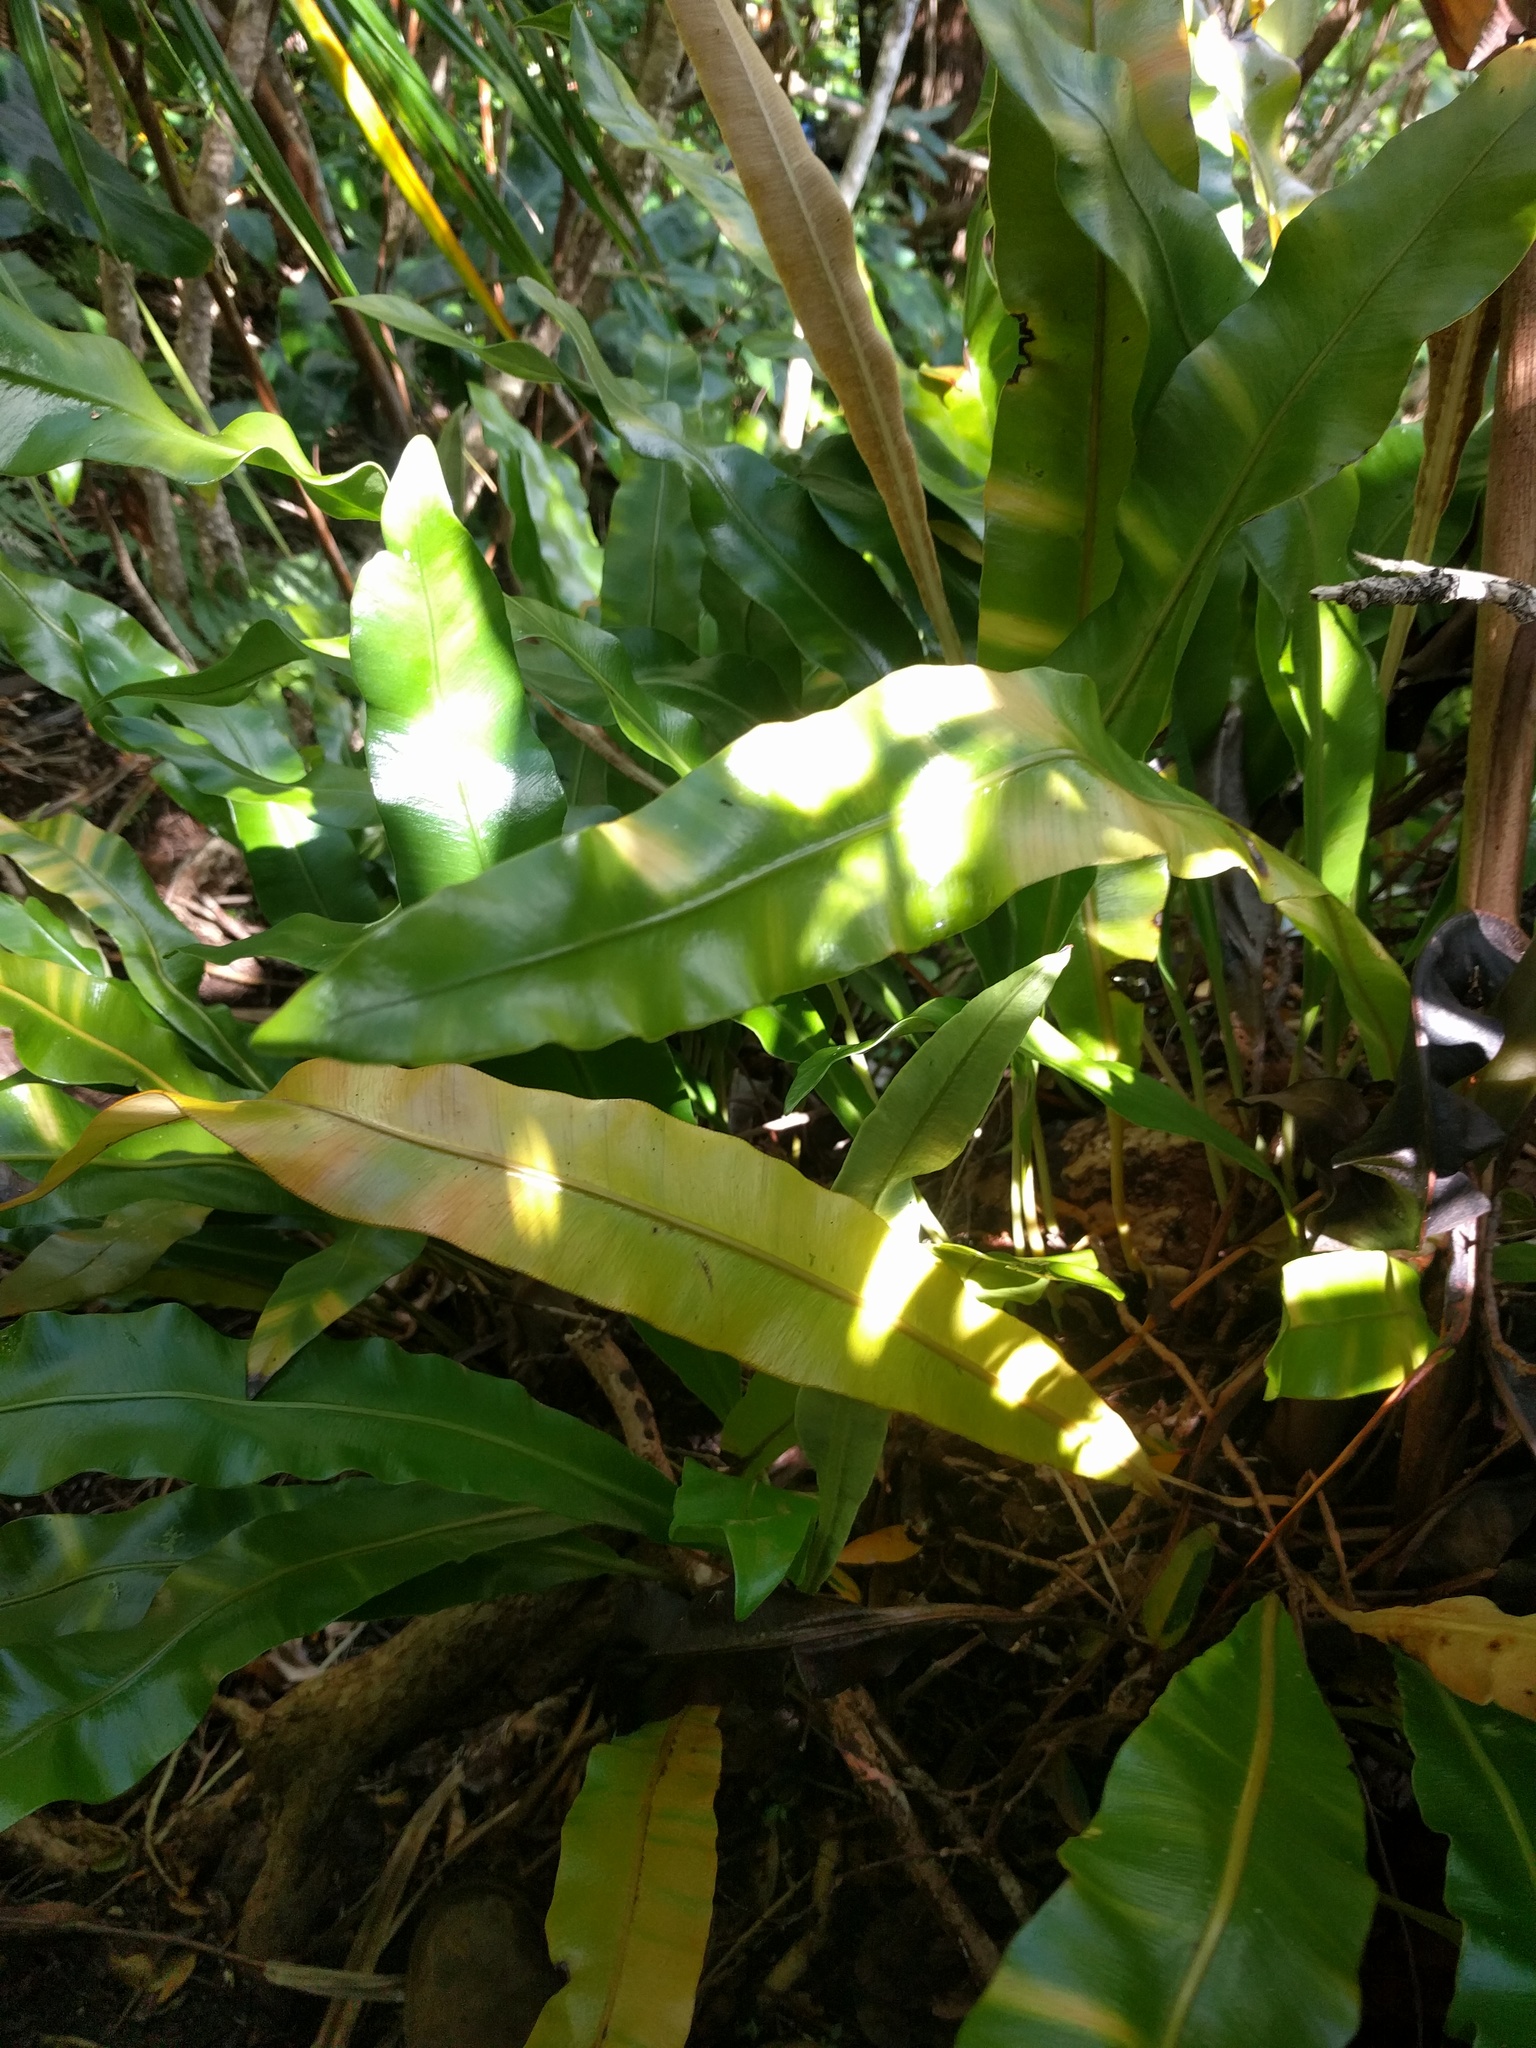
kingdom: Plantae
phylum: Tracheophyta
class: Polypodiopsida
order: Polypodiales
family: Dryopteridaceae
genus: Elaphoglossum
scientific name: Elaphoglossum aemulum
